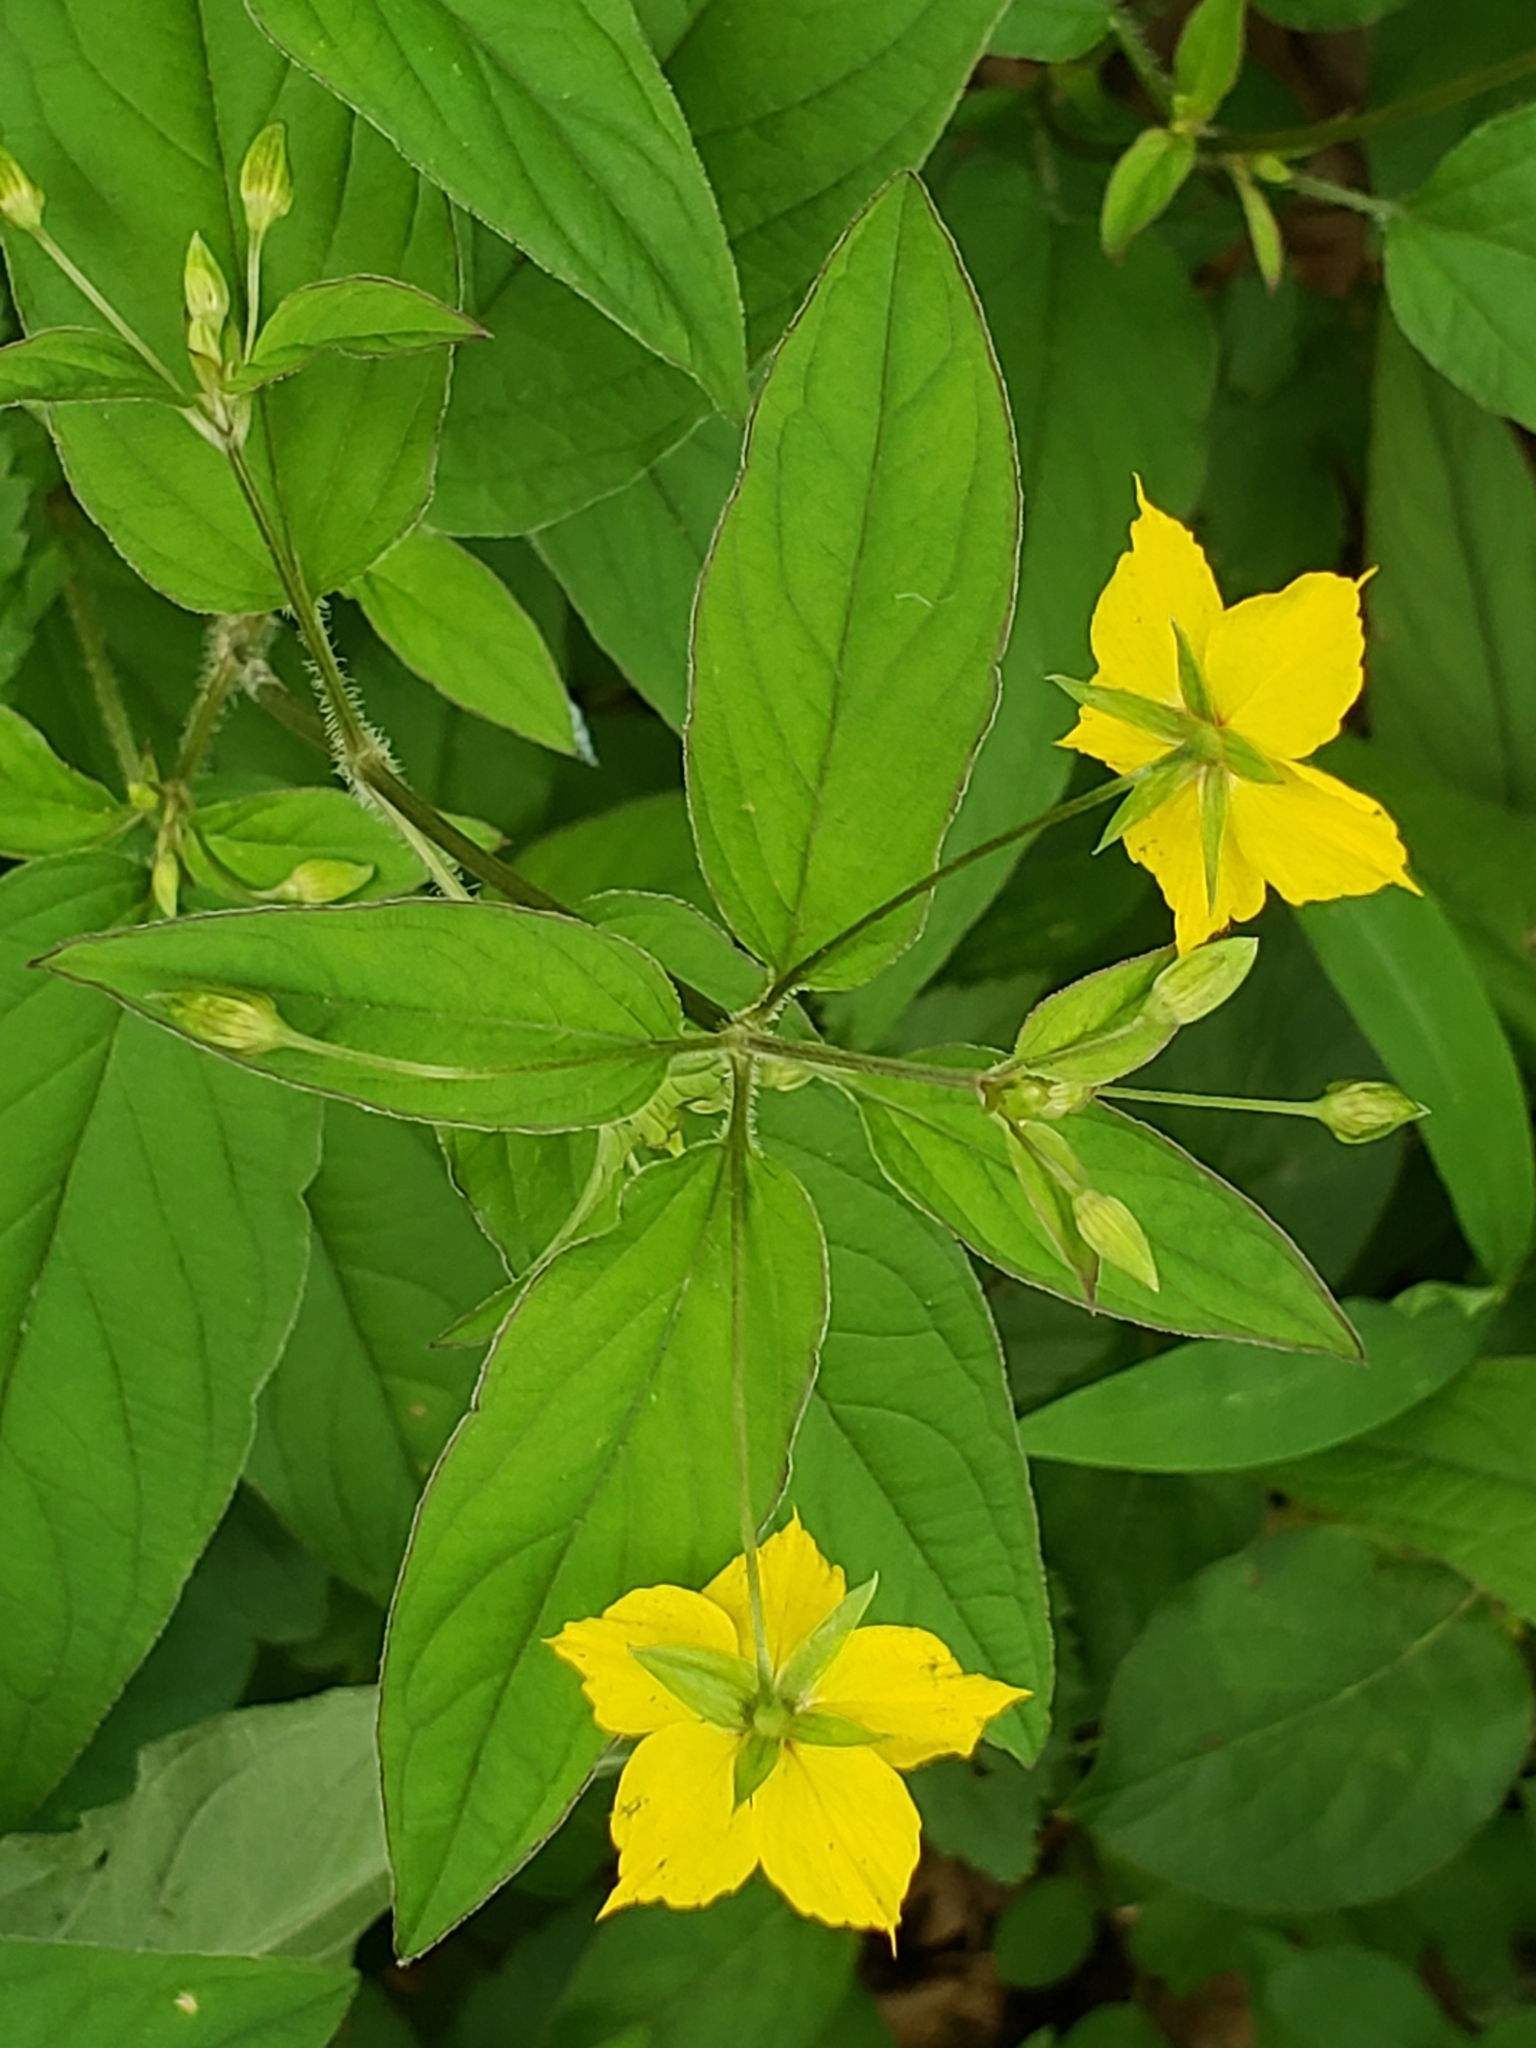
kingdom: Plantae
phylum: Tracheophyta
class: Magnoliopsida
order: Ericales
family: Primulaceae
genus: Lysimachia
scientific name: Lysimachia ciliata
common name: Fringed loosestrife
